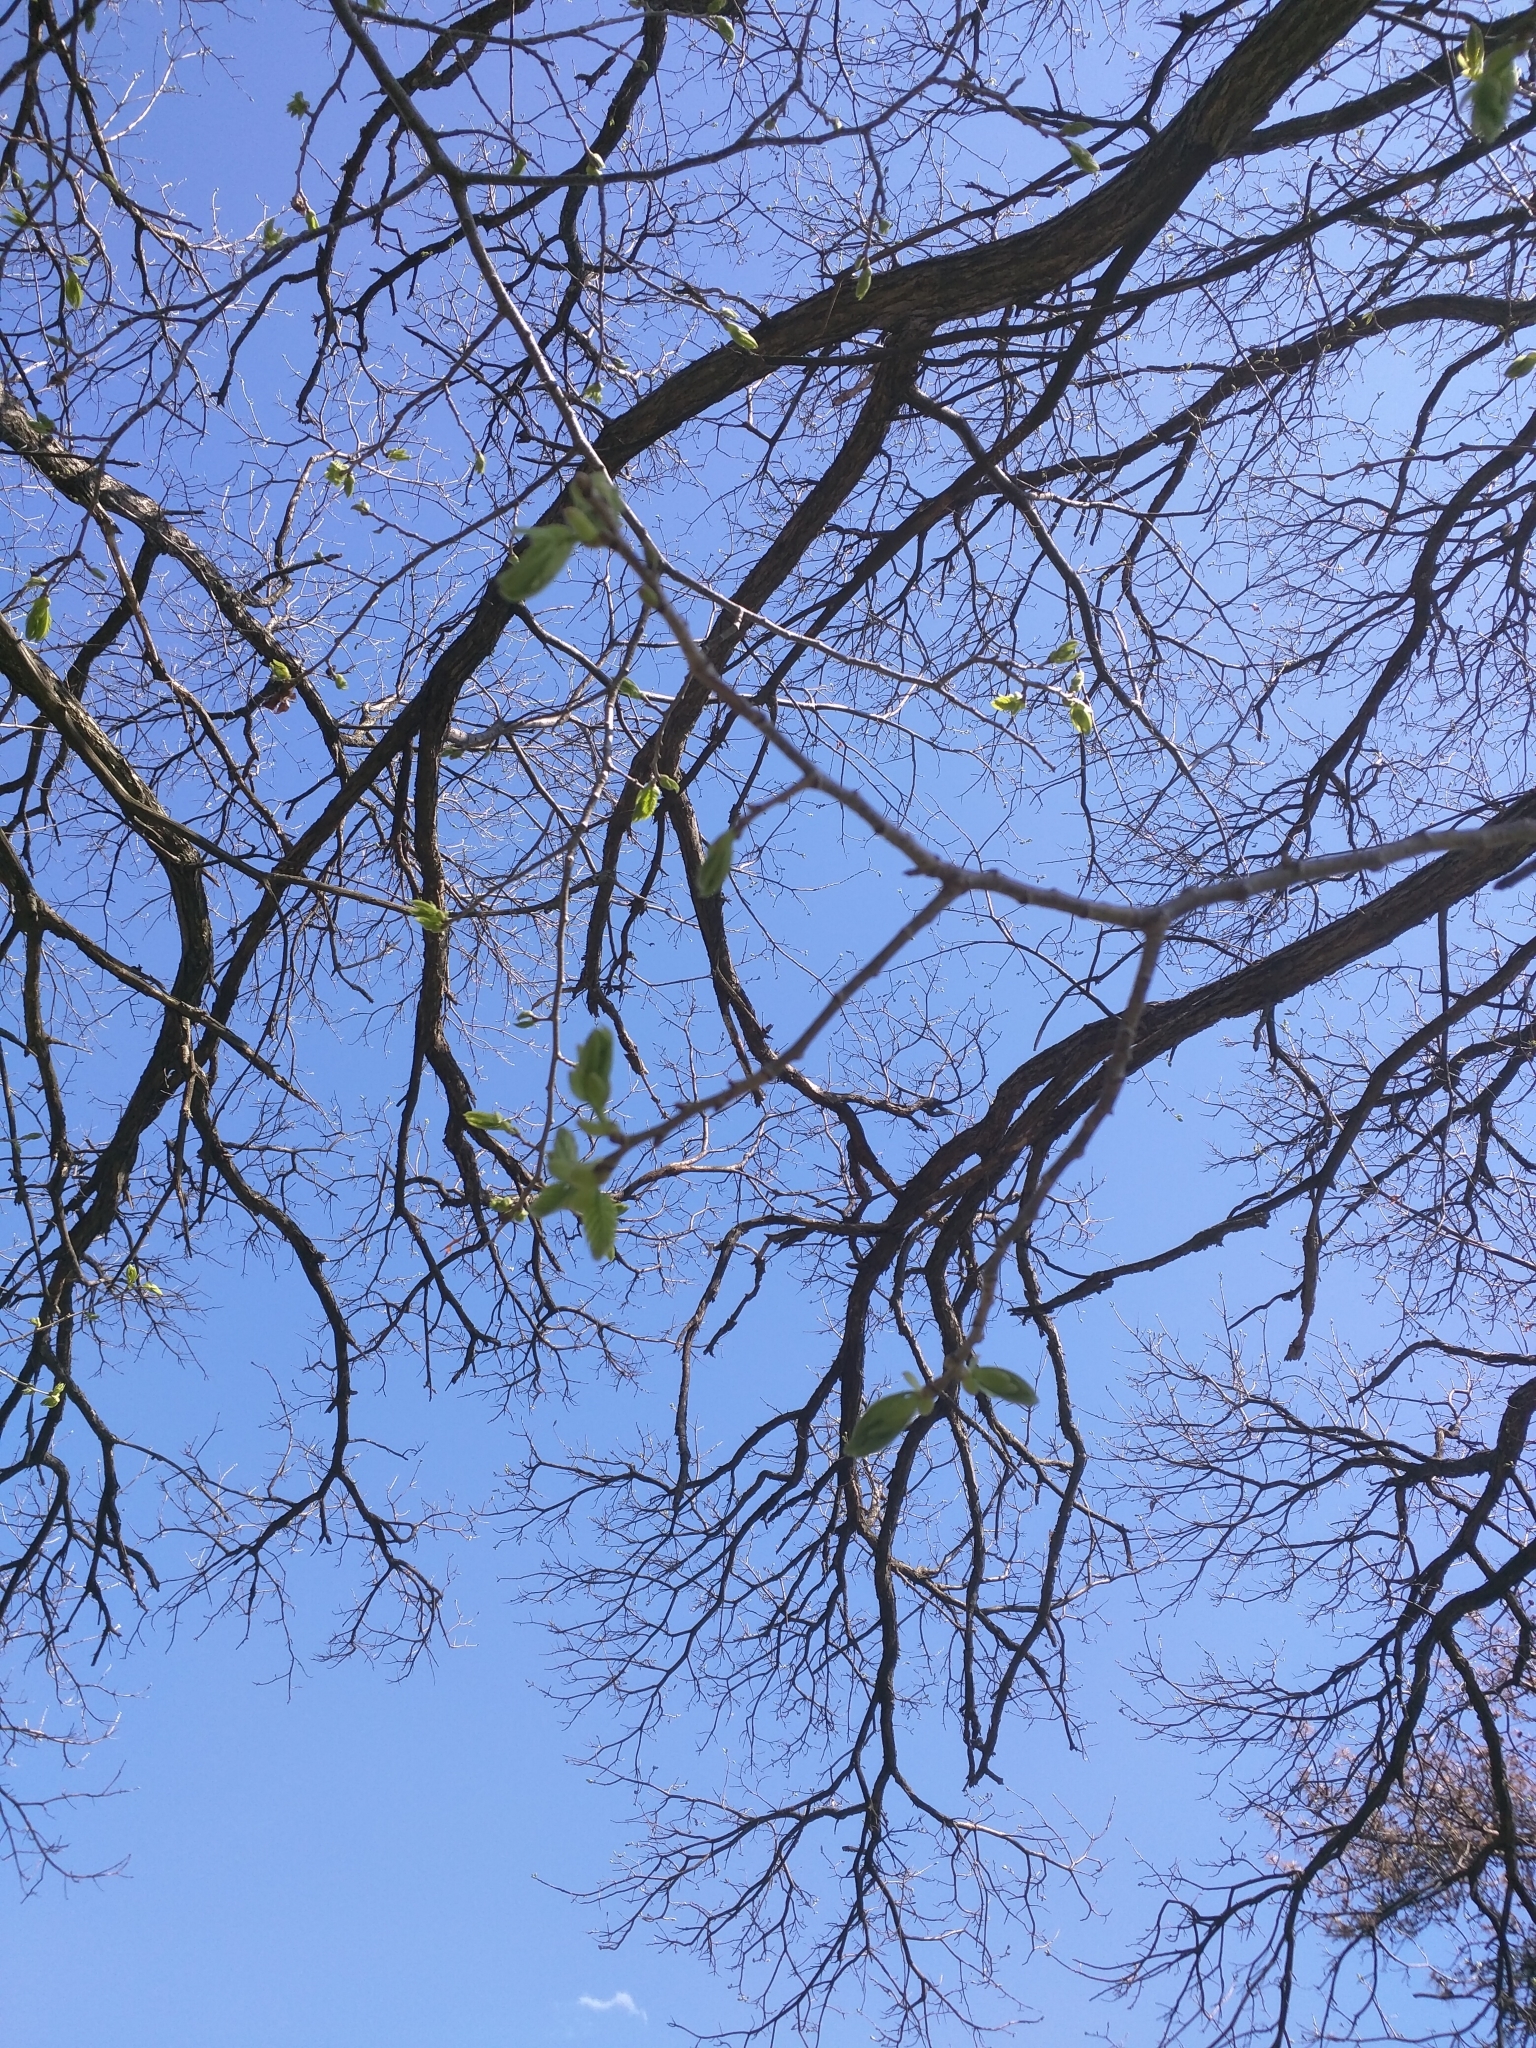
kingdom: Plantae
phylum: Tracheophyta
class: Magnoliopsida
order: Fagales
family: Fagaceae
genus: Castanea
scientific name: Castanea mollissima
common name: Chinese chestnut
